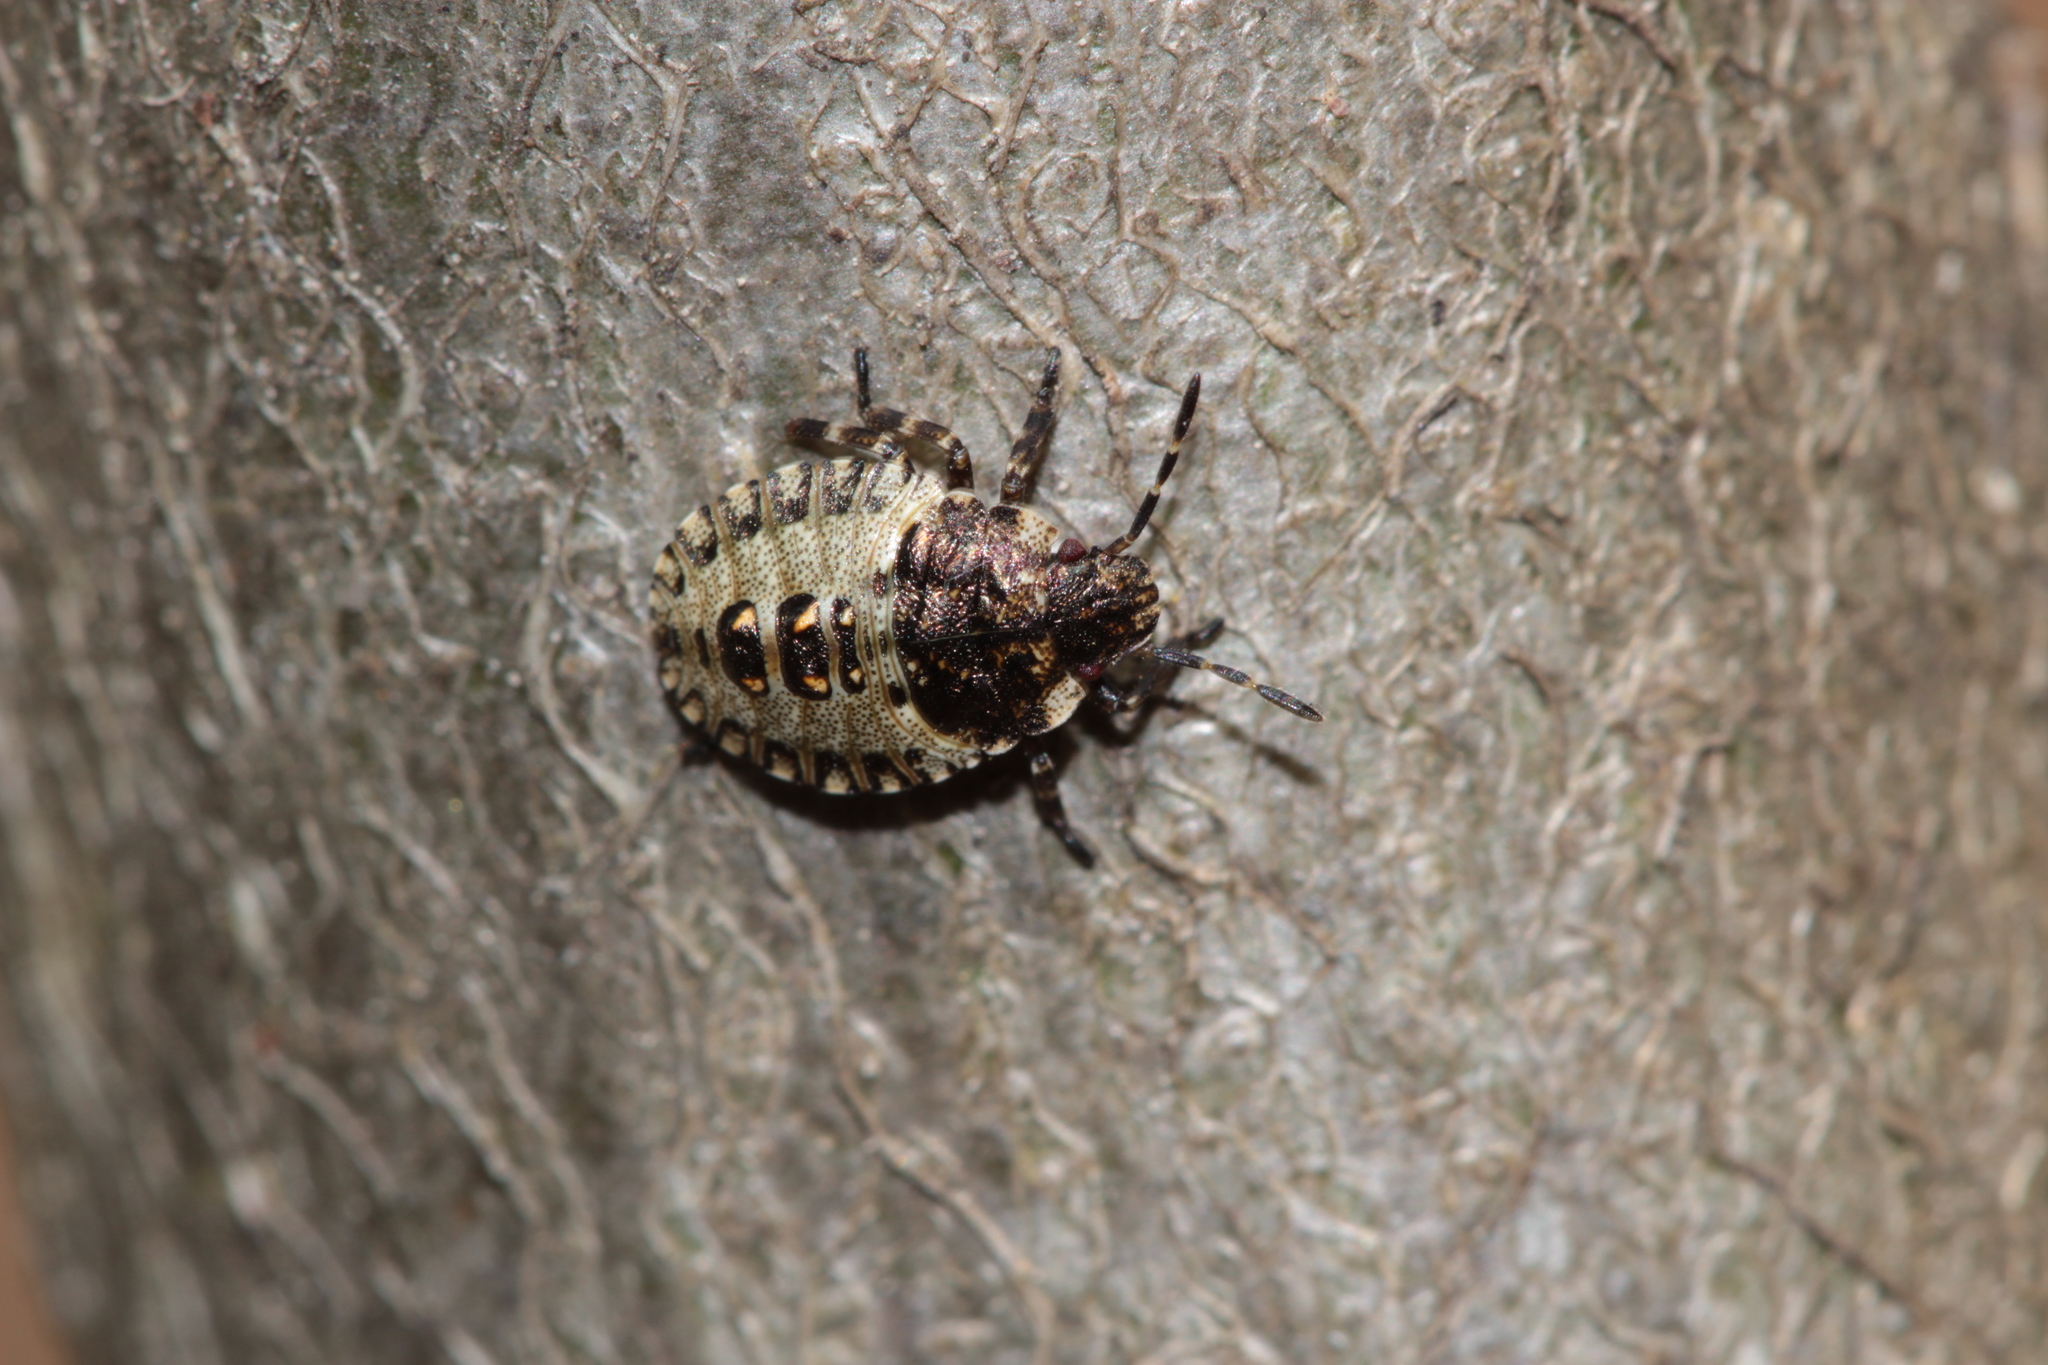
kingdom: Animalia
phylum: Arthropoda
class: Insecta
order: Hemiptera
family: Pentatomidae
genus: Pentatoma
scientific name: Pentatoma rufipes
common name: Forest bug
